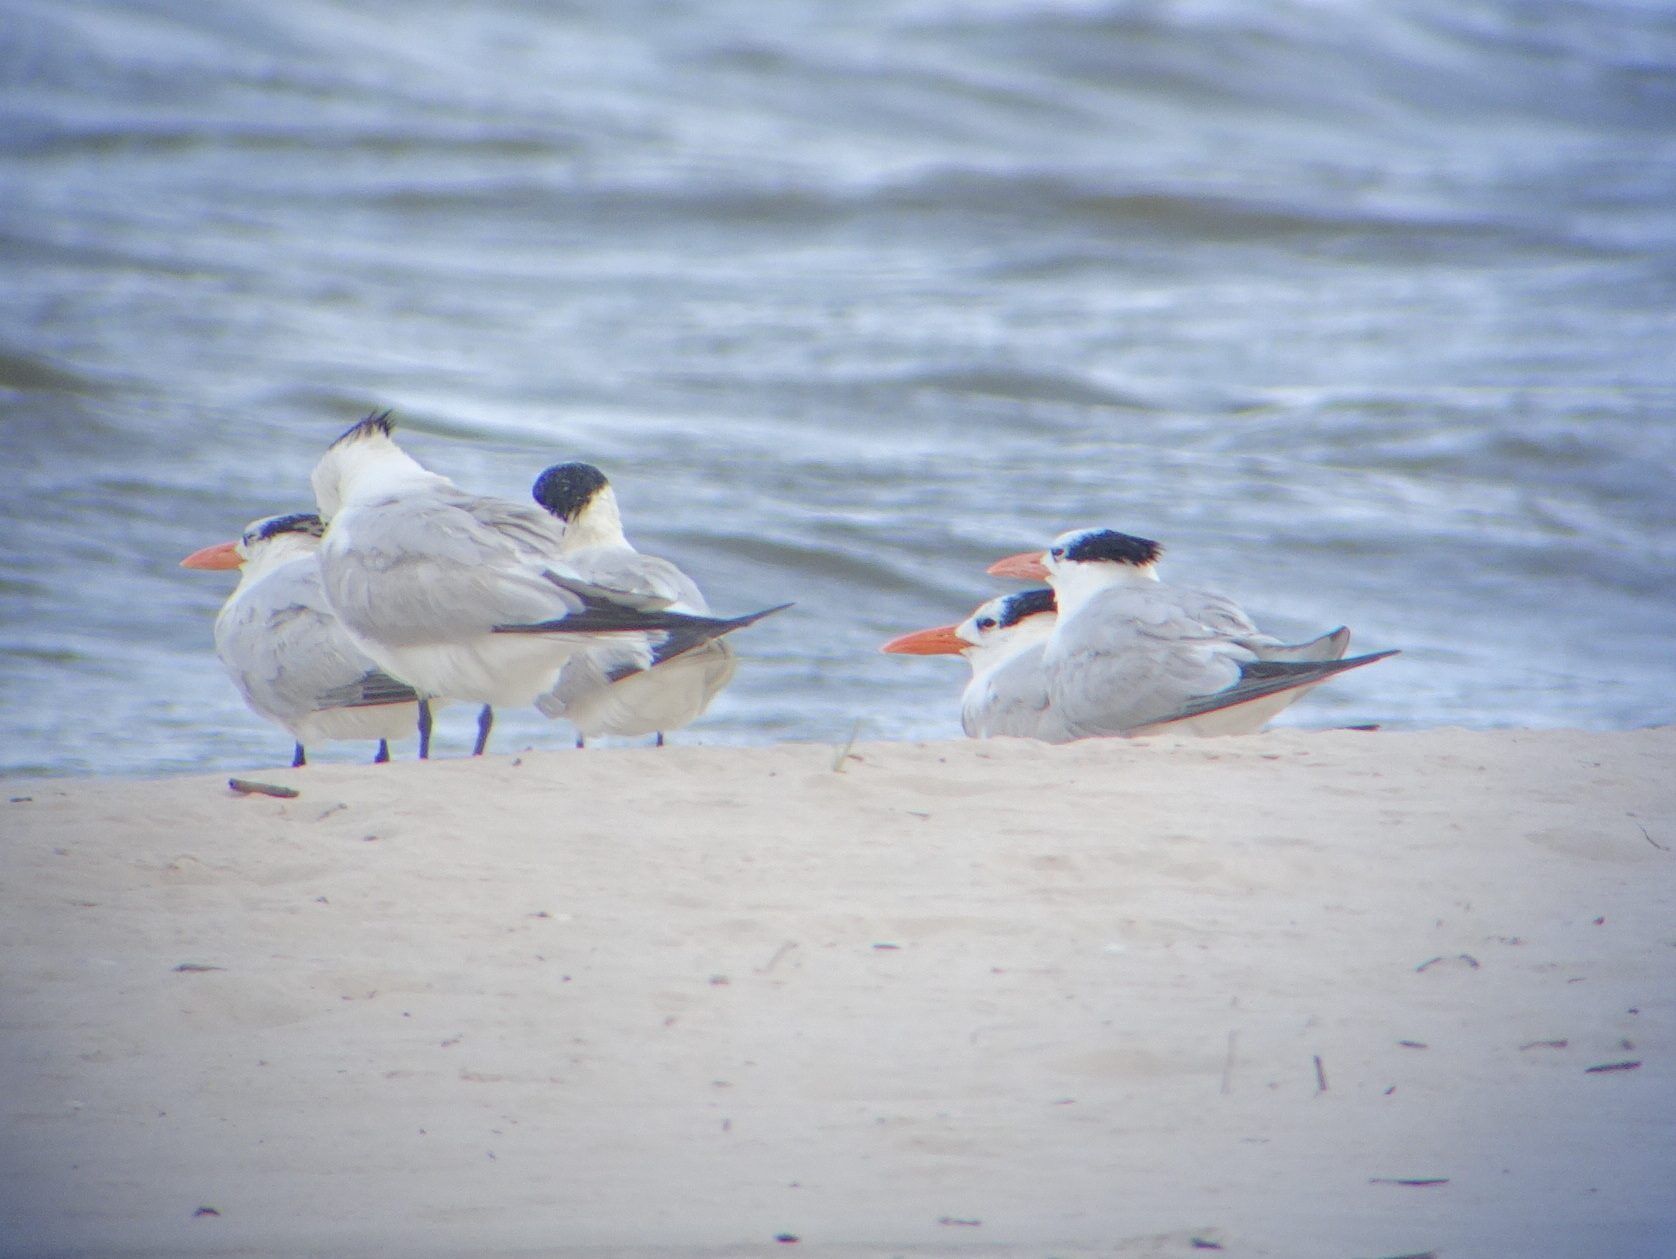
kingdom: Animalia
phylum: Chordata
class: Aves
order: Charadriiformes
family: Laridae
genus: Thalasseus
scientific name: Thalasseus maximus
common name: Royal tern
